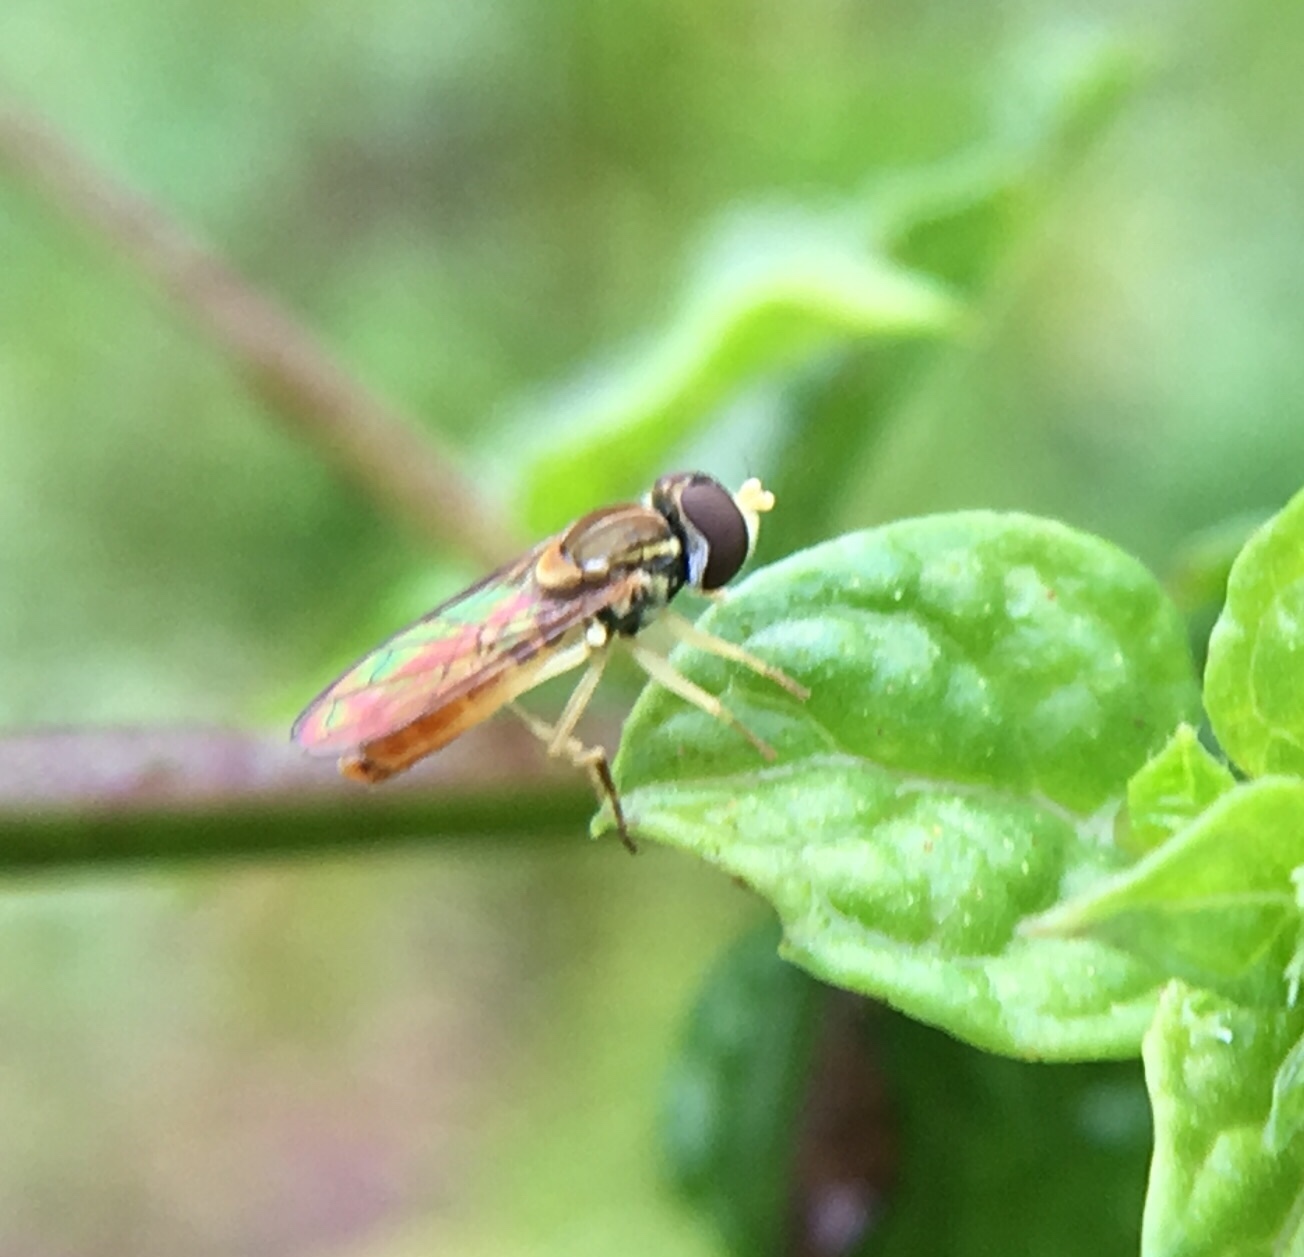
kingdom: Animalia
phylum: Arthropoda
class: Insecta
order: Diptera
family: Syrphidae
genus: Toxomerus
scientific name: Toxomerus marginatus
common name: Syrphid fly
